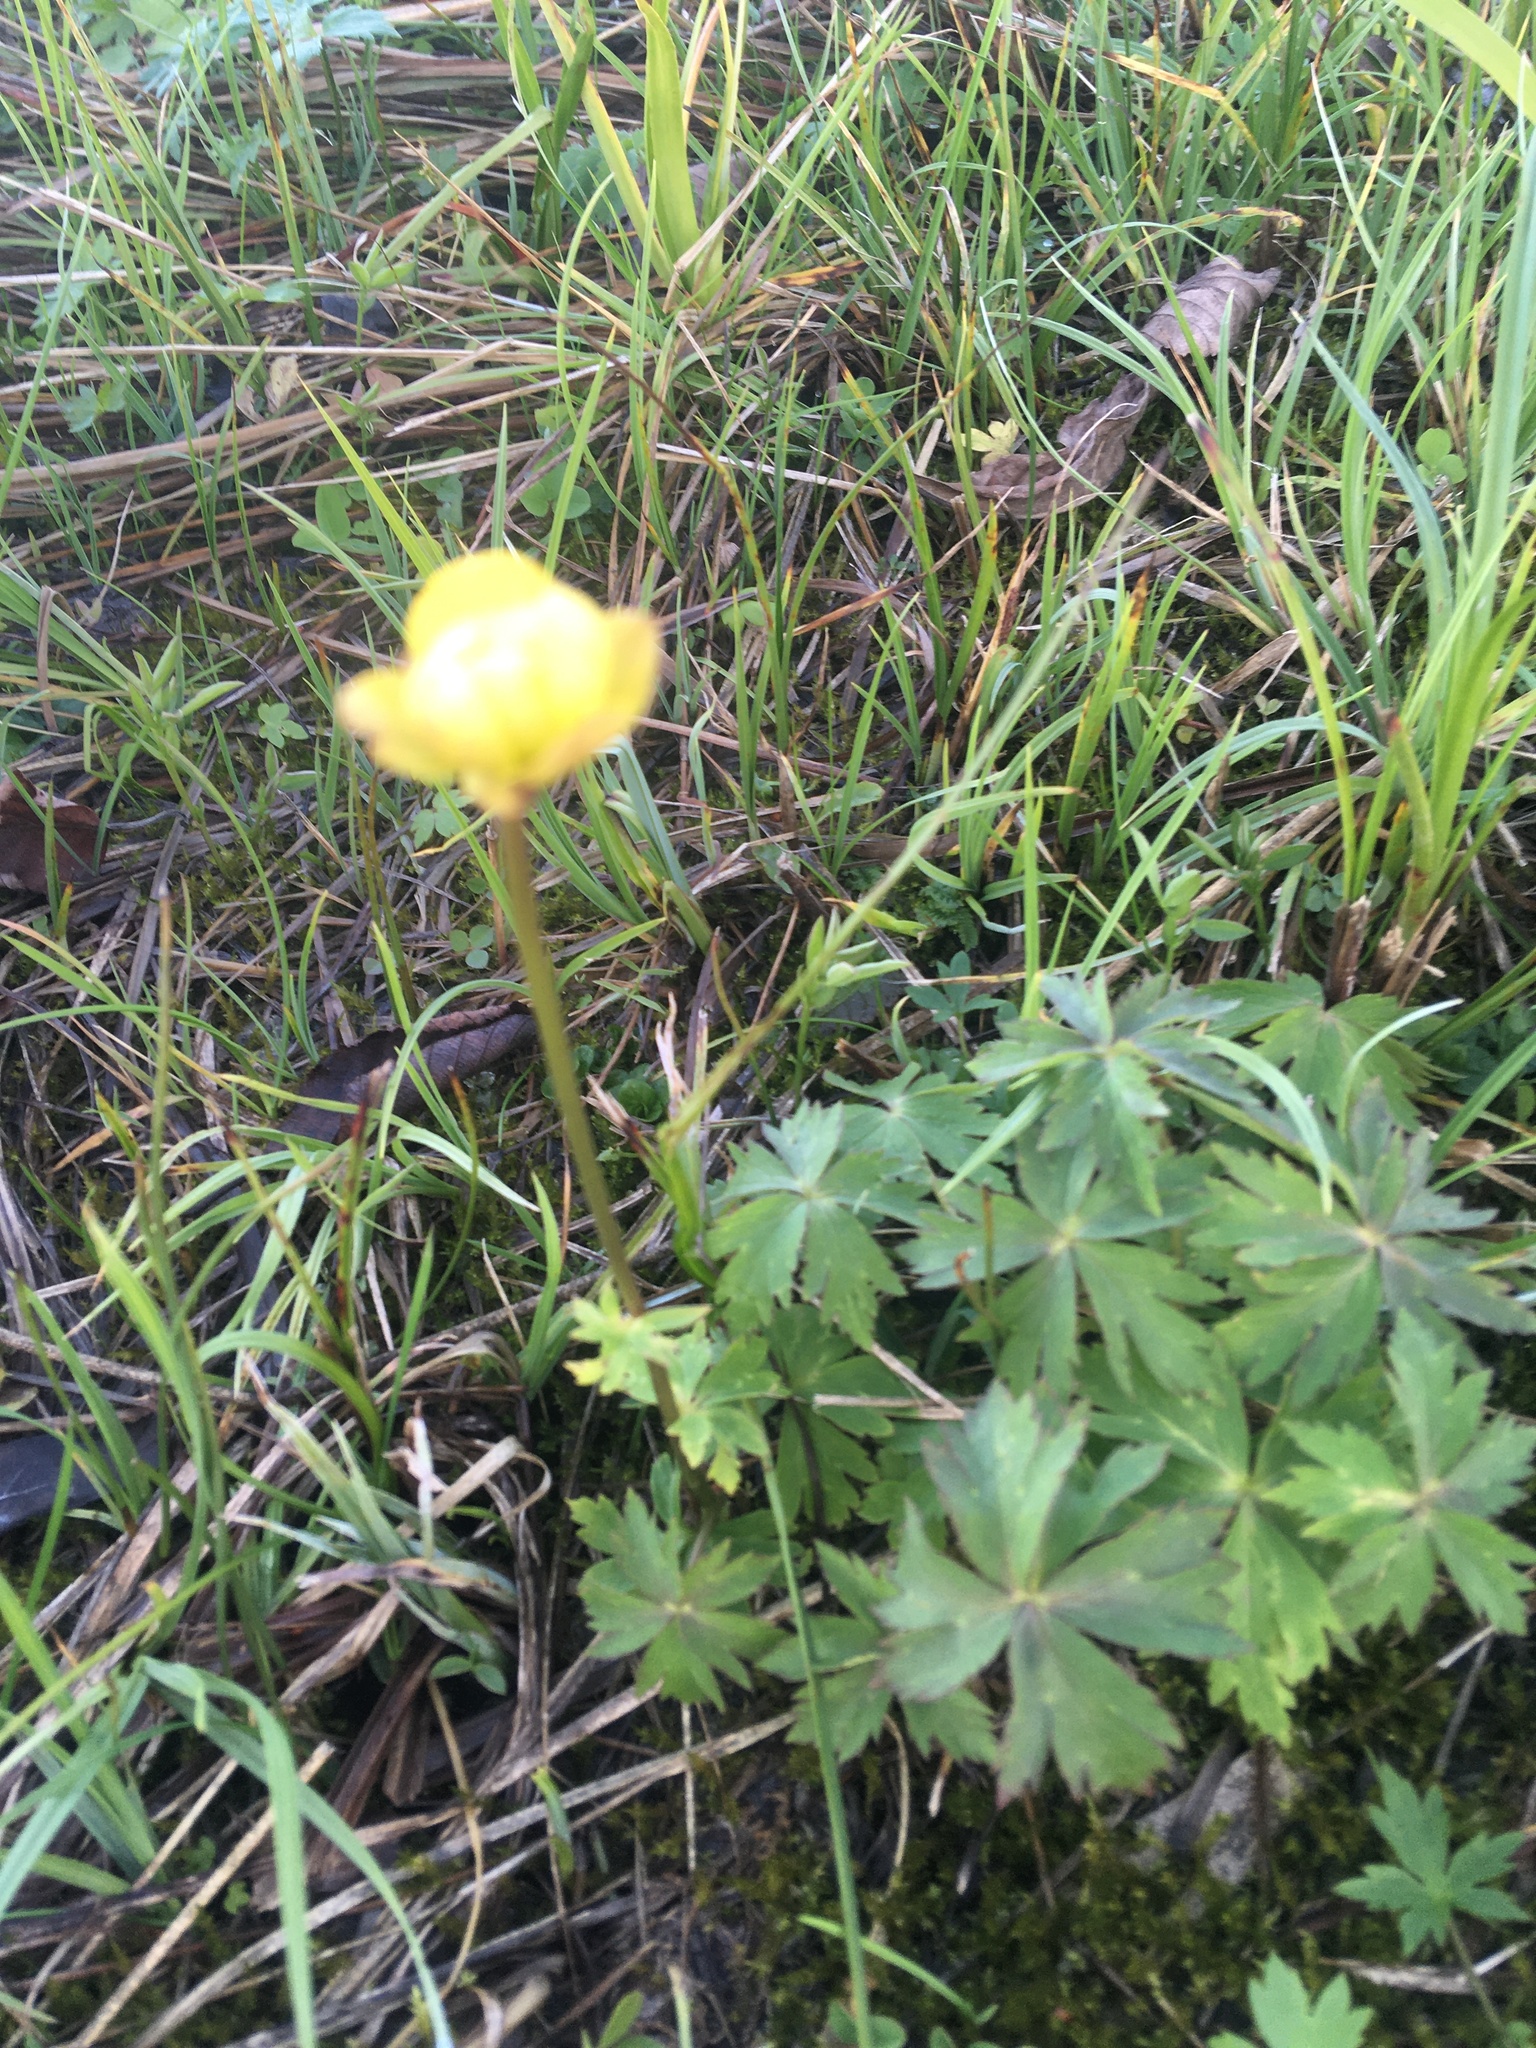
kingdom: Plantae
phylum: Tracheophyta
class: Magnoliopsida
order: Ranunculales
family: Ranunculaceae
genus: Trollius
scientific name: Trollius europaeus
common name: European globeflower
